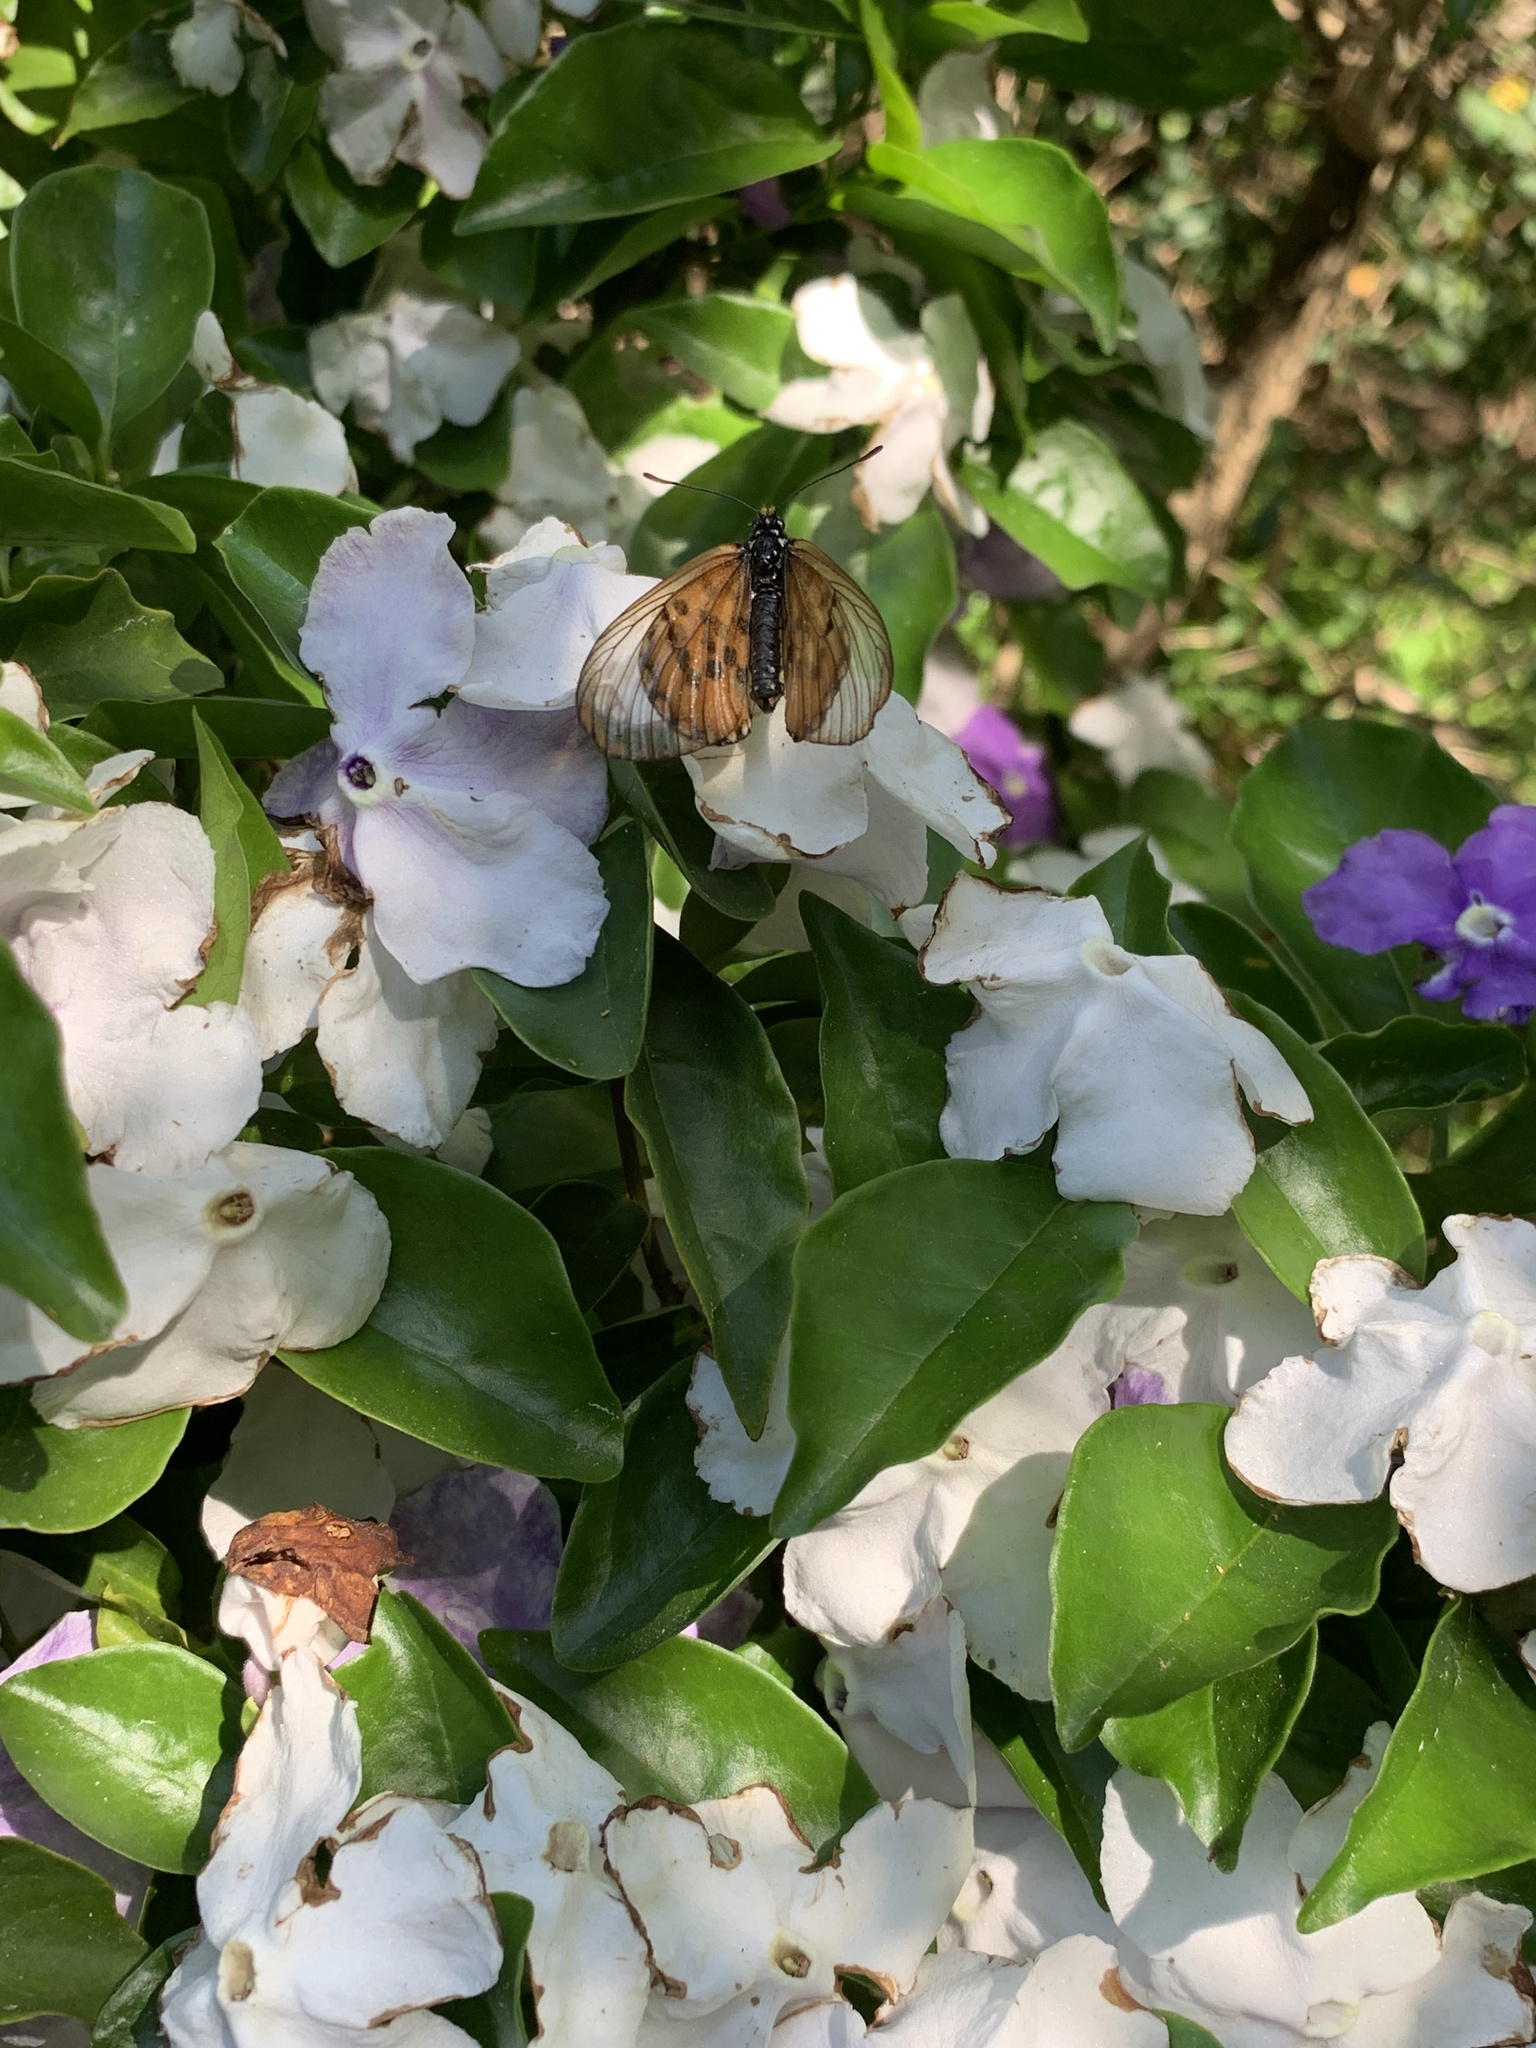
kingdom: Animalia
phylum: Arthropoda
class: Insecta
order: Lepidoptera
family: Nymphalidae
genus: Acraea
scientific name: Acraea horta
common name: Garden acraea
